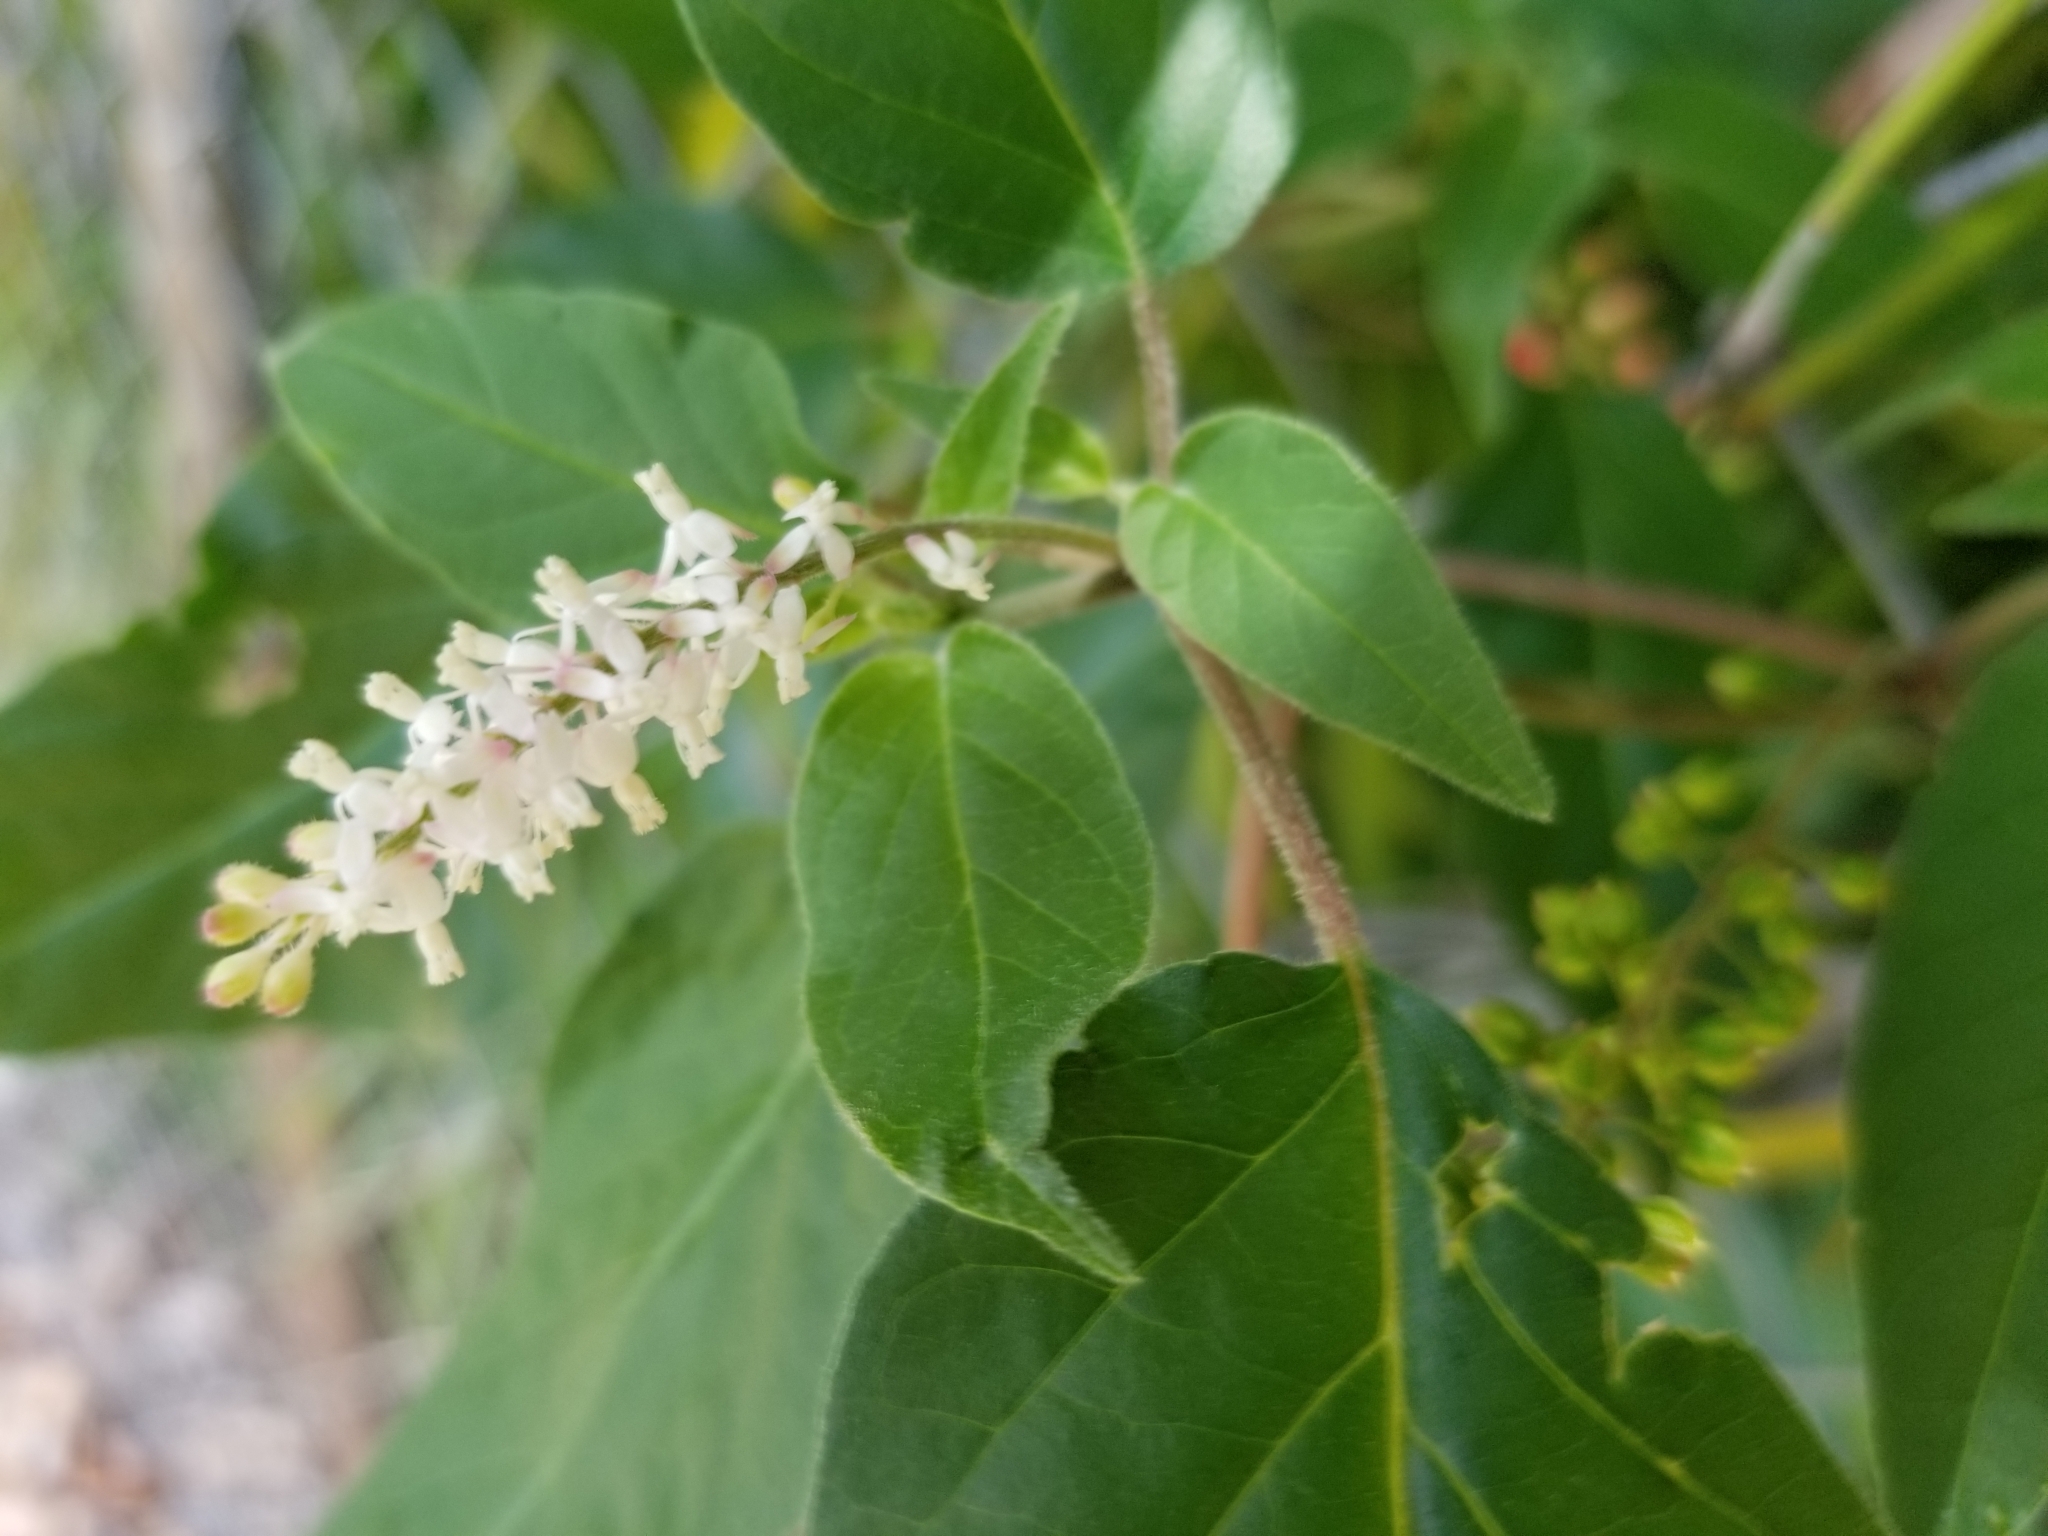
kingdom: Plantae
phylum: Tracheophyta
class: Magnoliopsida
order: Caryophyllales
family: Phytolaccaceae
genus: Rivina
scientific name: Rivina humilis
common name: Rougeplant
